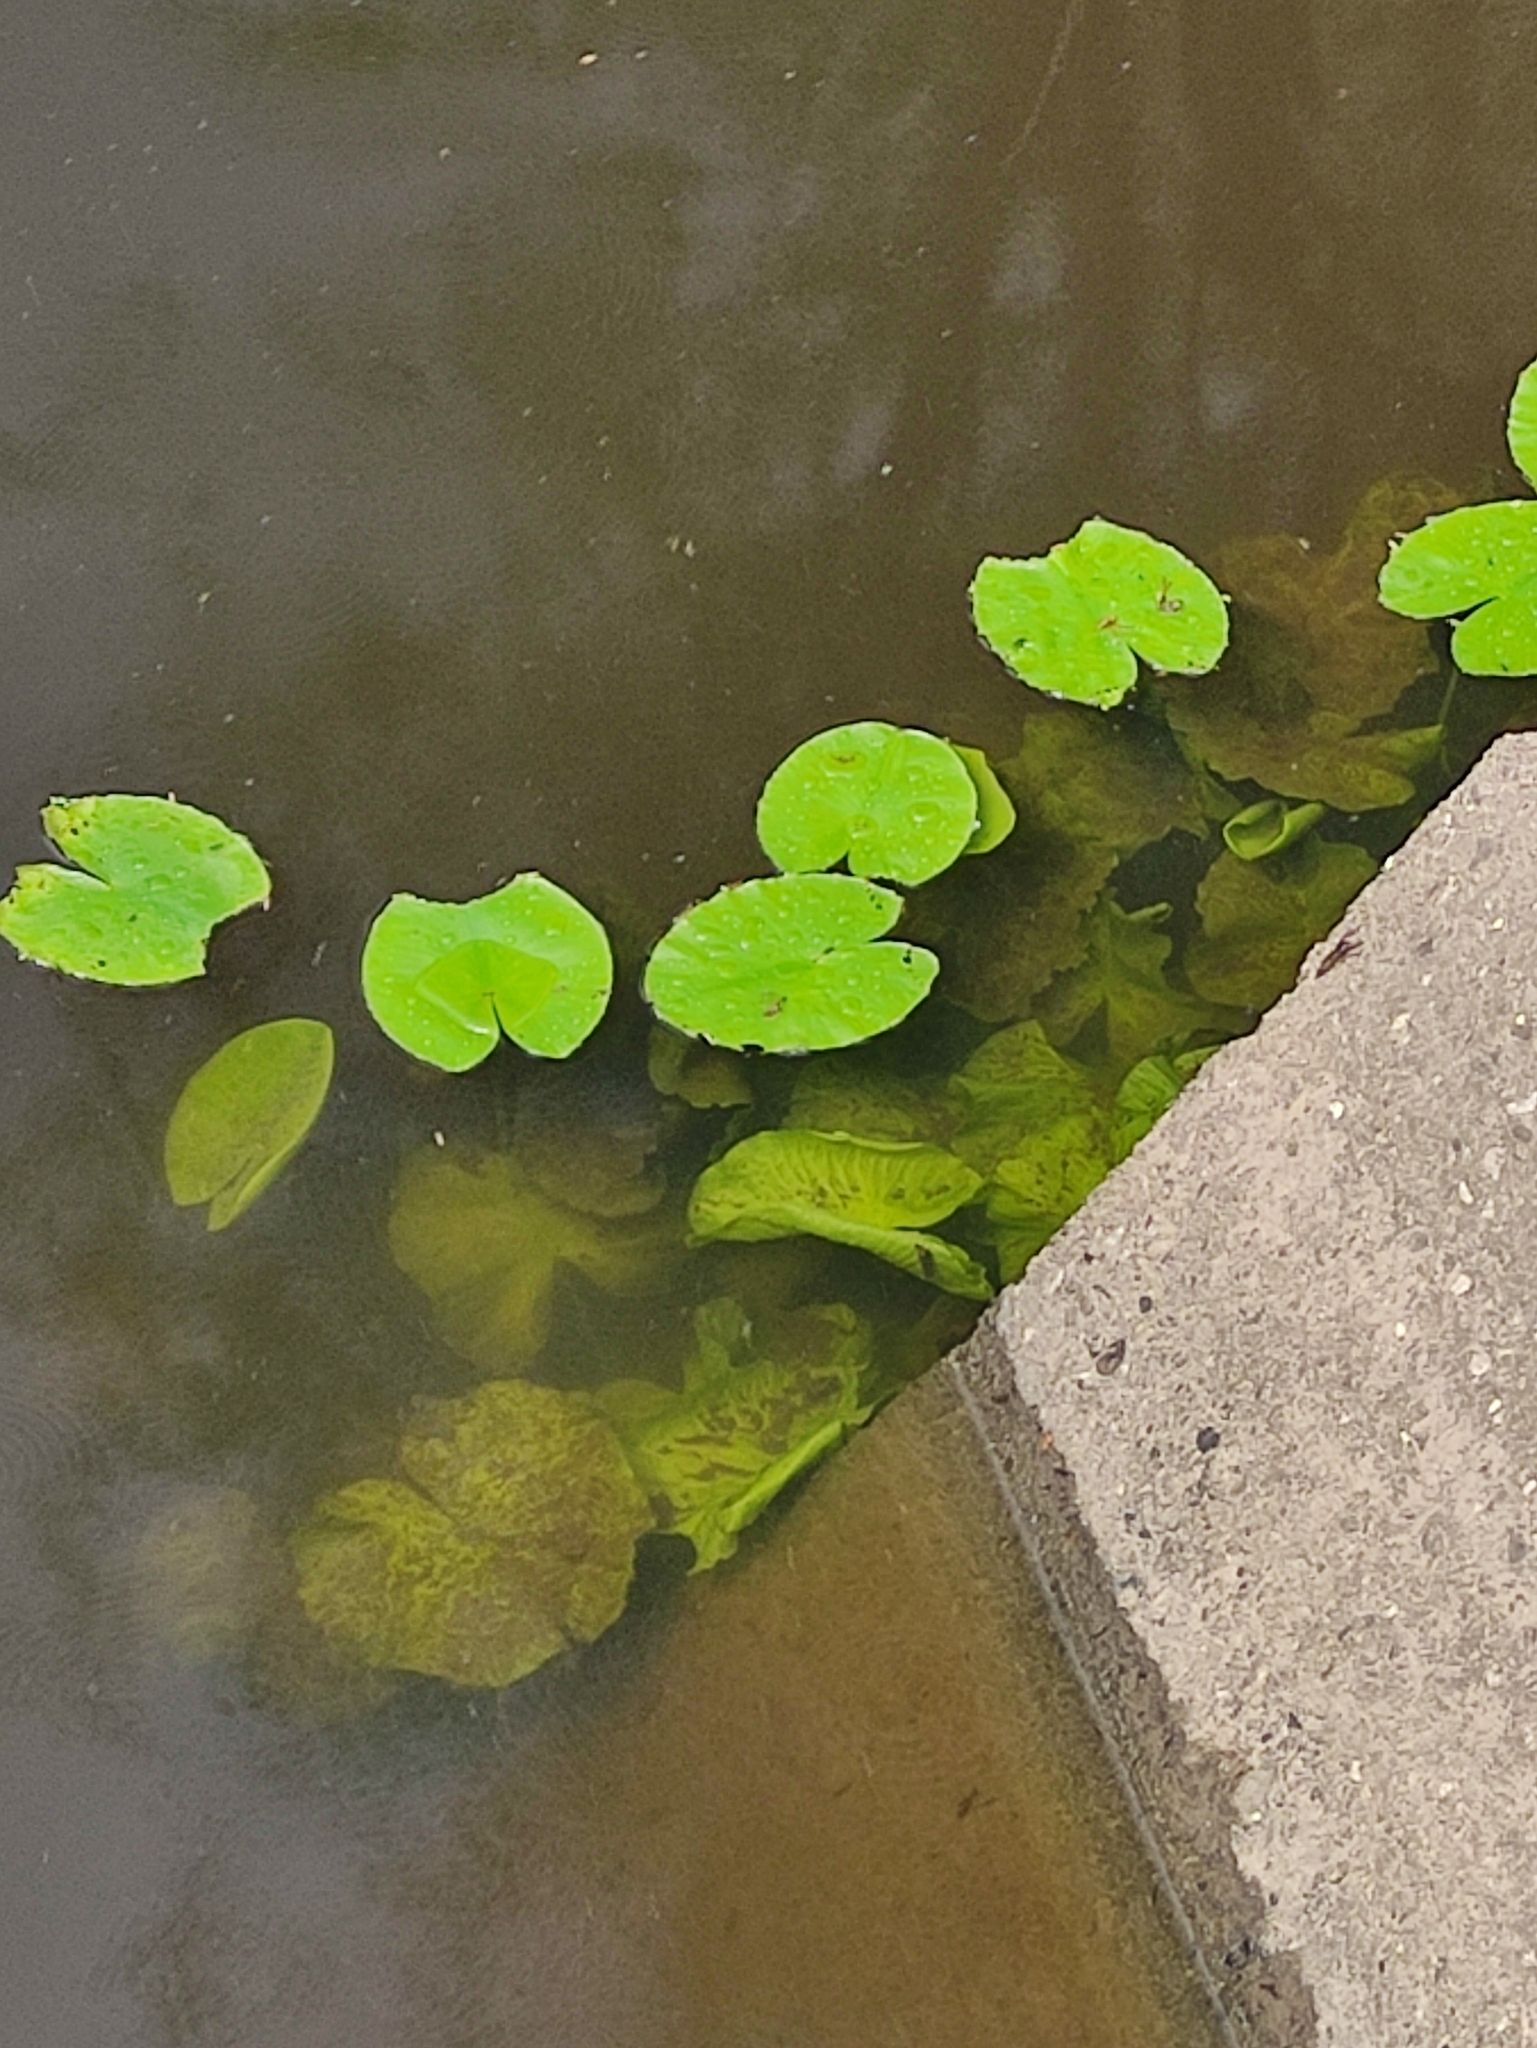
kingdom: Plantae
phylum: Tracheophyta
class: Magnoliopsida
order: Nymphaeales
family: Nymphaeaceae
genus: Nuphar
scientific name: Nuphar lutea
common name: Yellow water-lily
